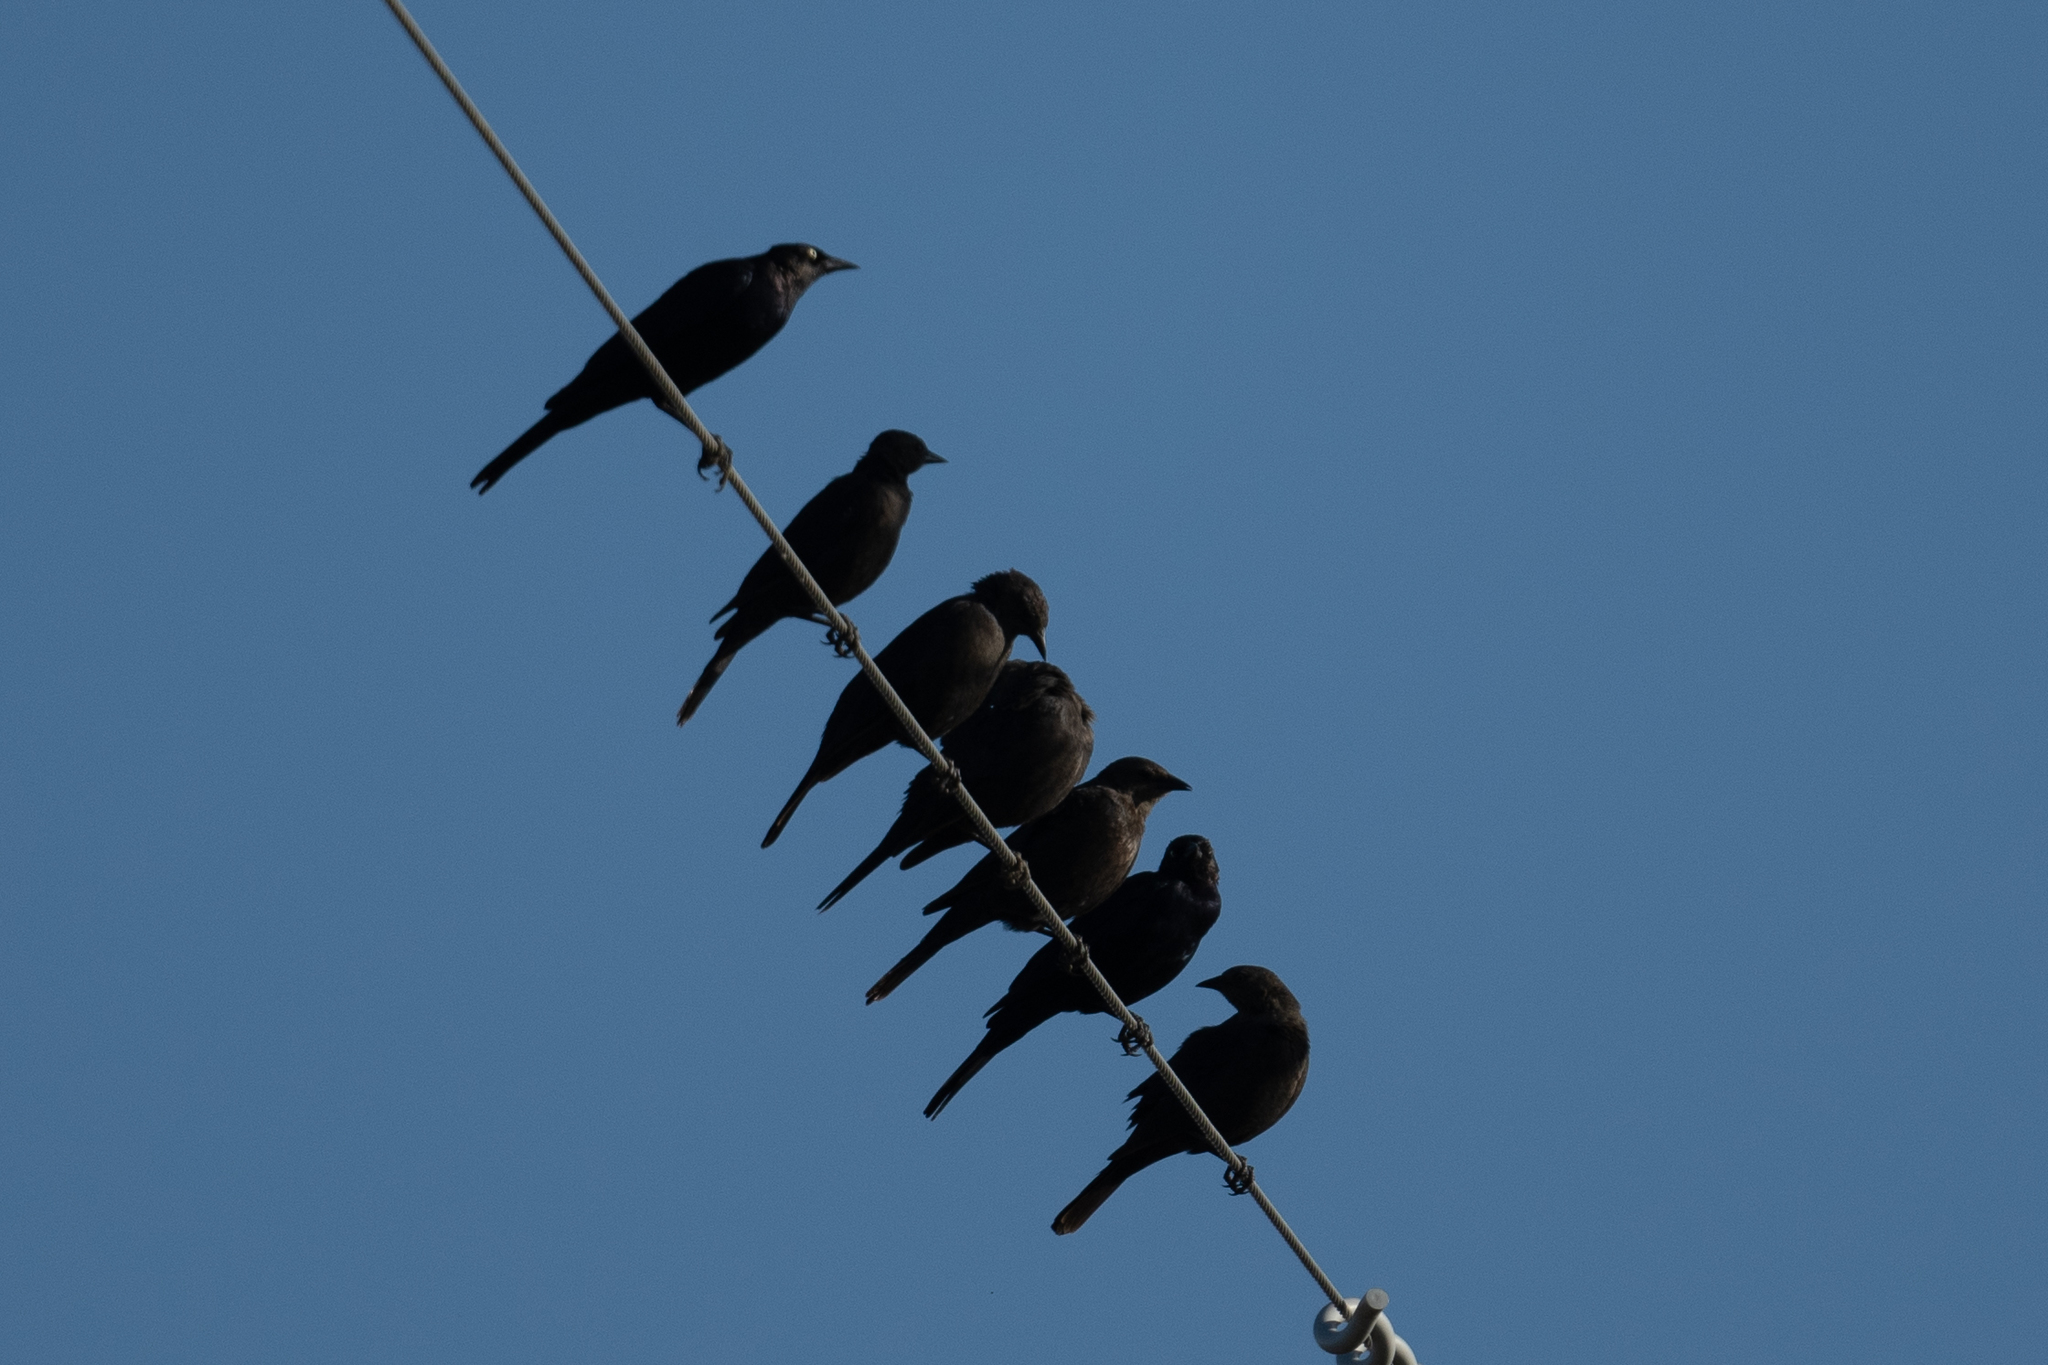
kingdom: Animalia
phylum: Chordata
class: Aves
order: Passeriformes
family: Icteridae
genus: Euphagus
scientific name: Euphagus cyanocephalus
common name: Brewer's blackbird
